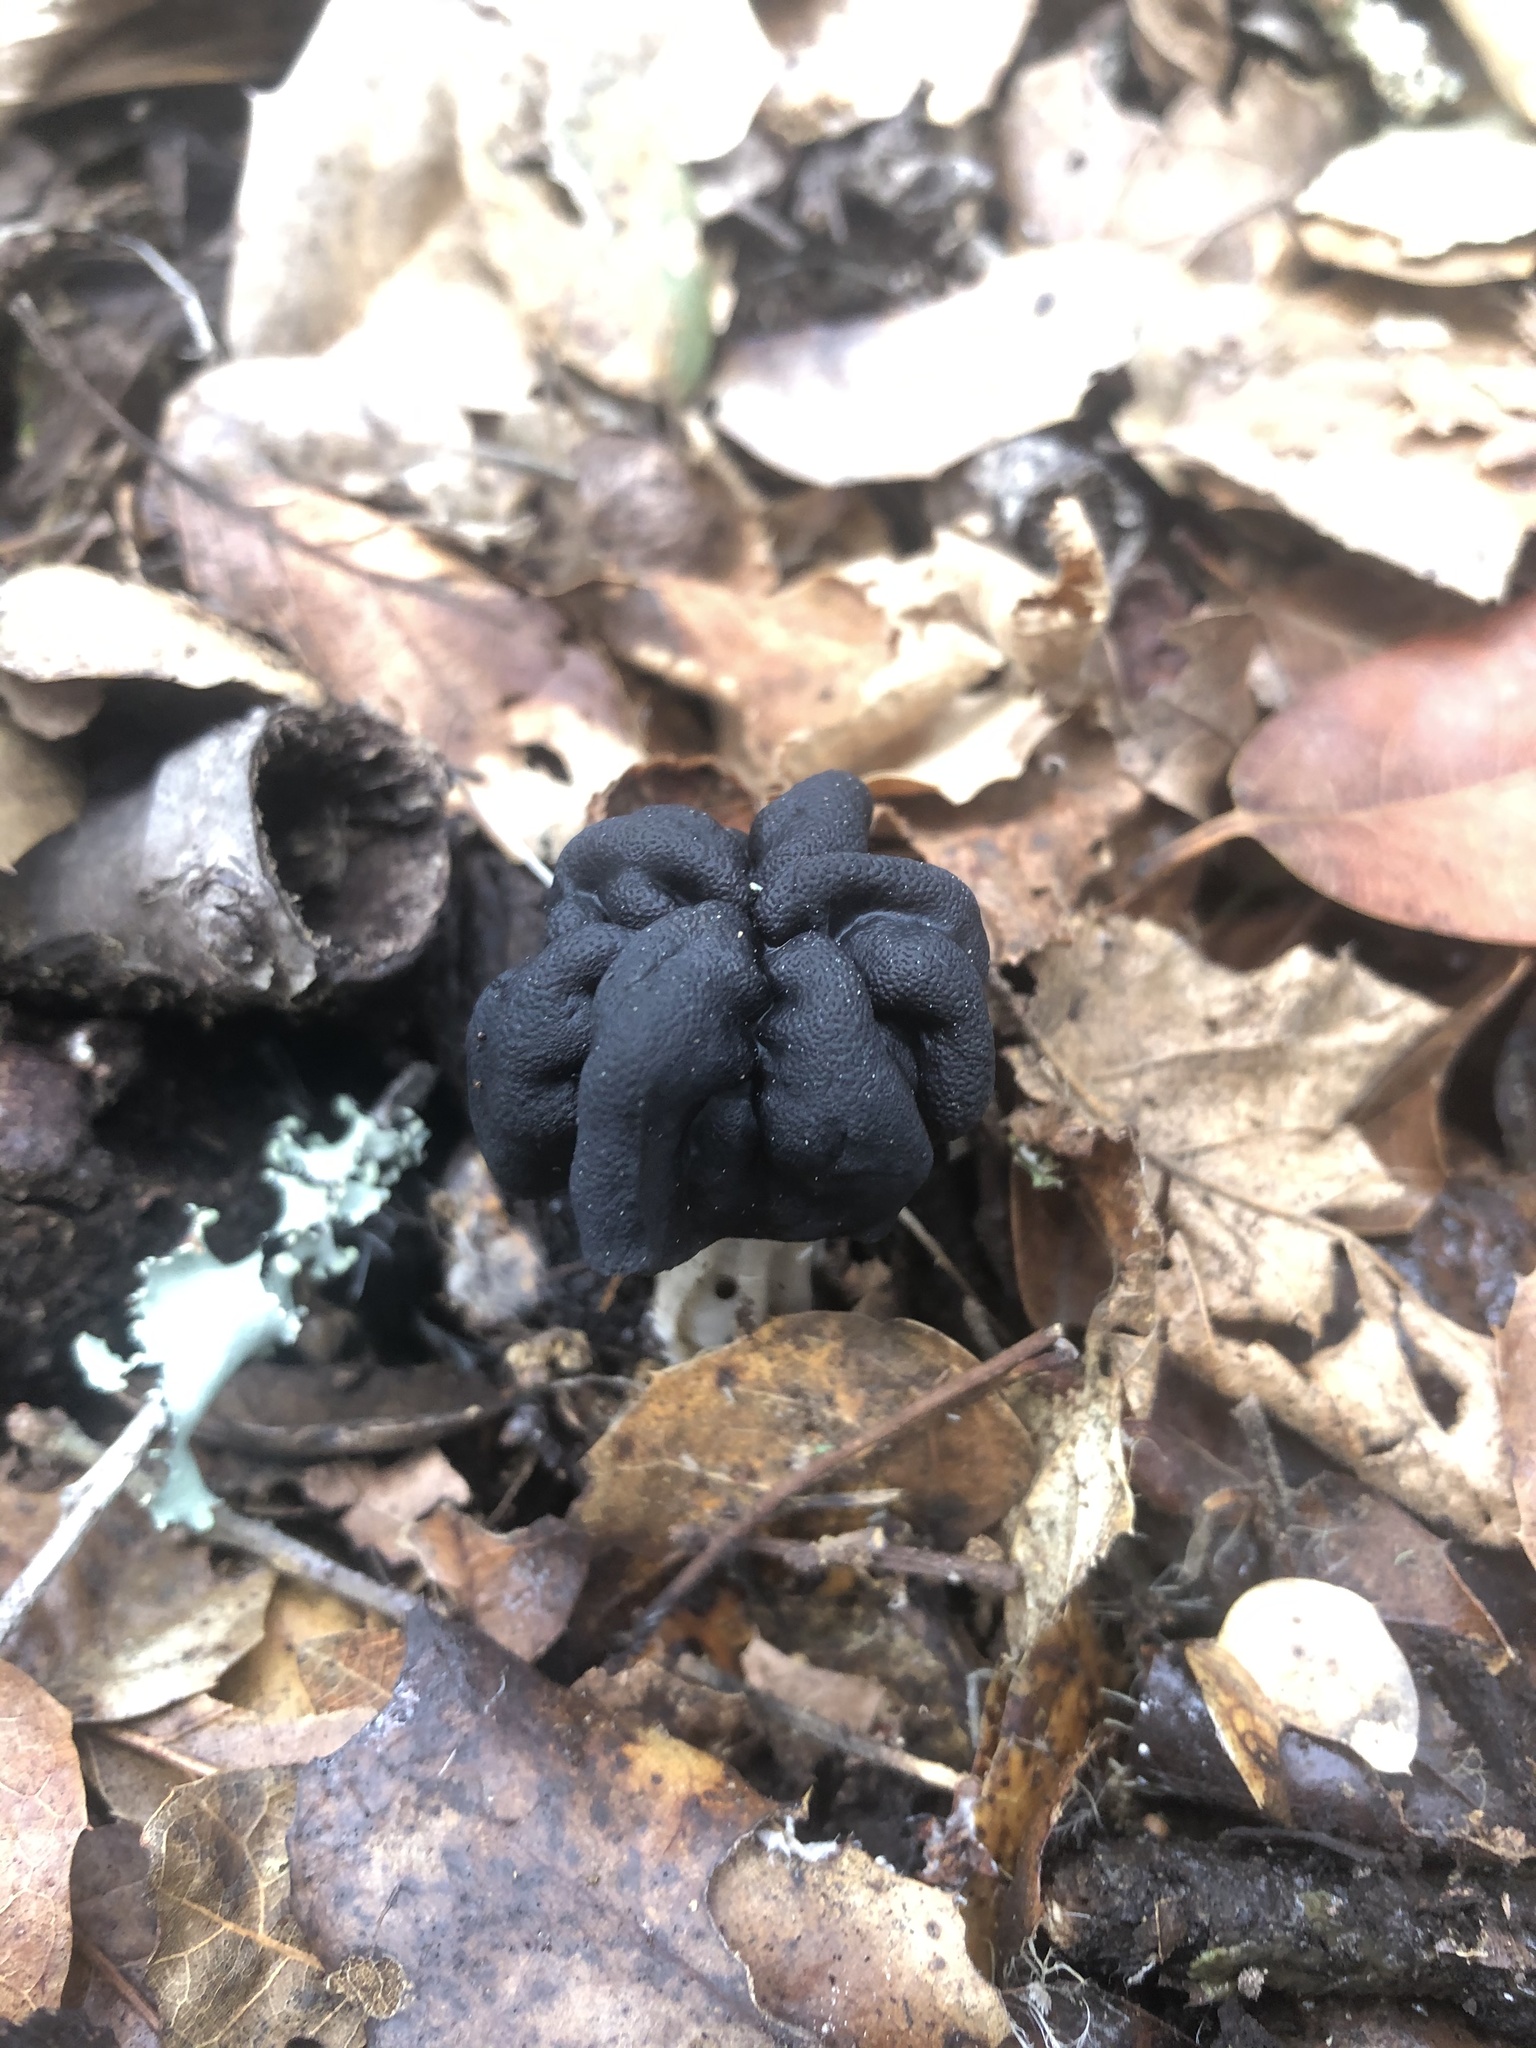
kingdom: Fungi
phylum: Ascomycota
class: Pezizomycetes
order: Pezizales
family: Helvellaceae
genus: Helvella
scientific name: Helvella dryophila
